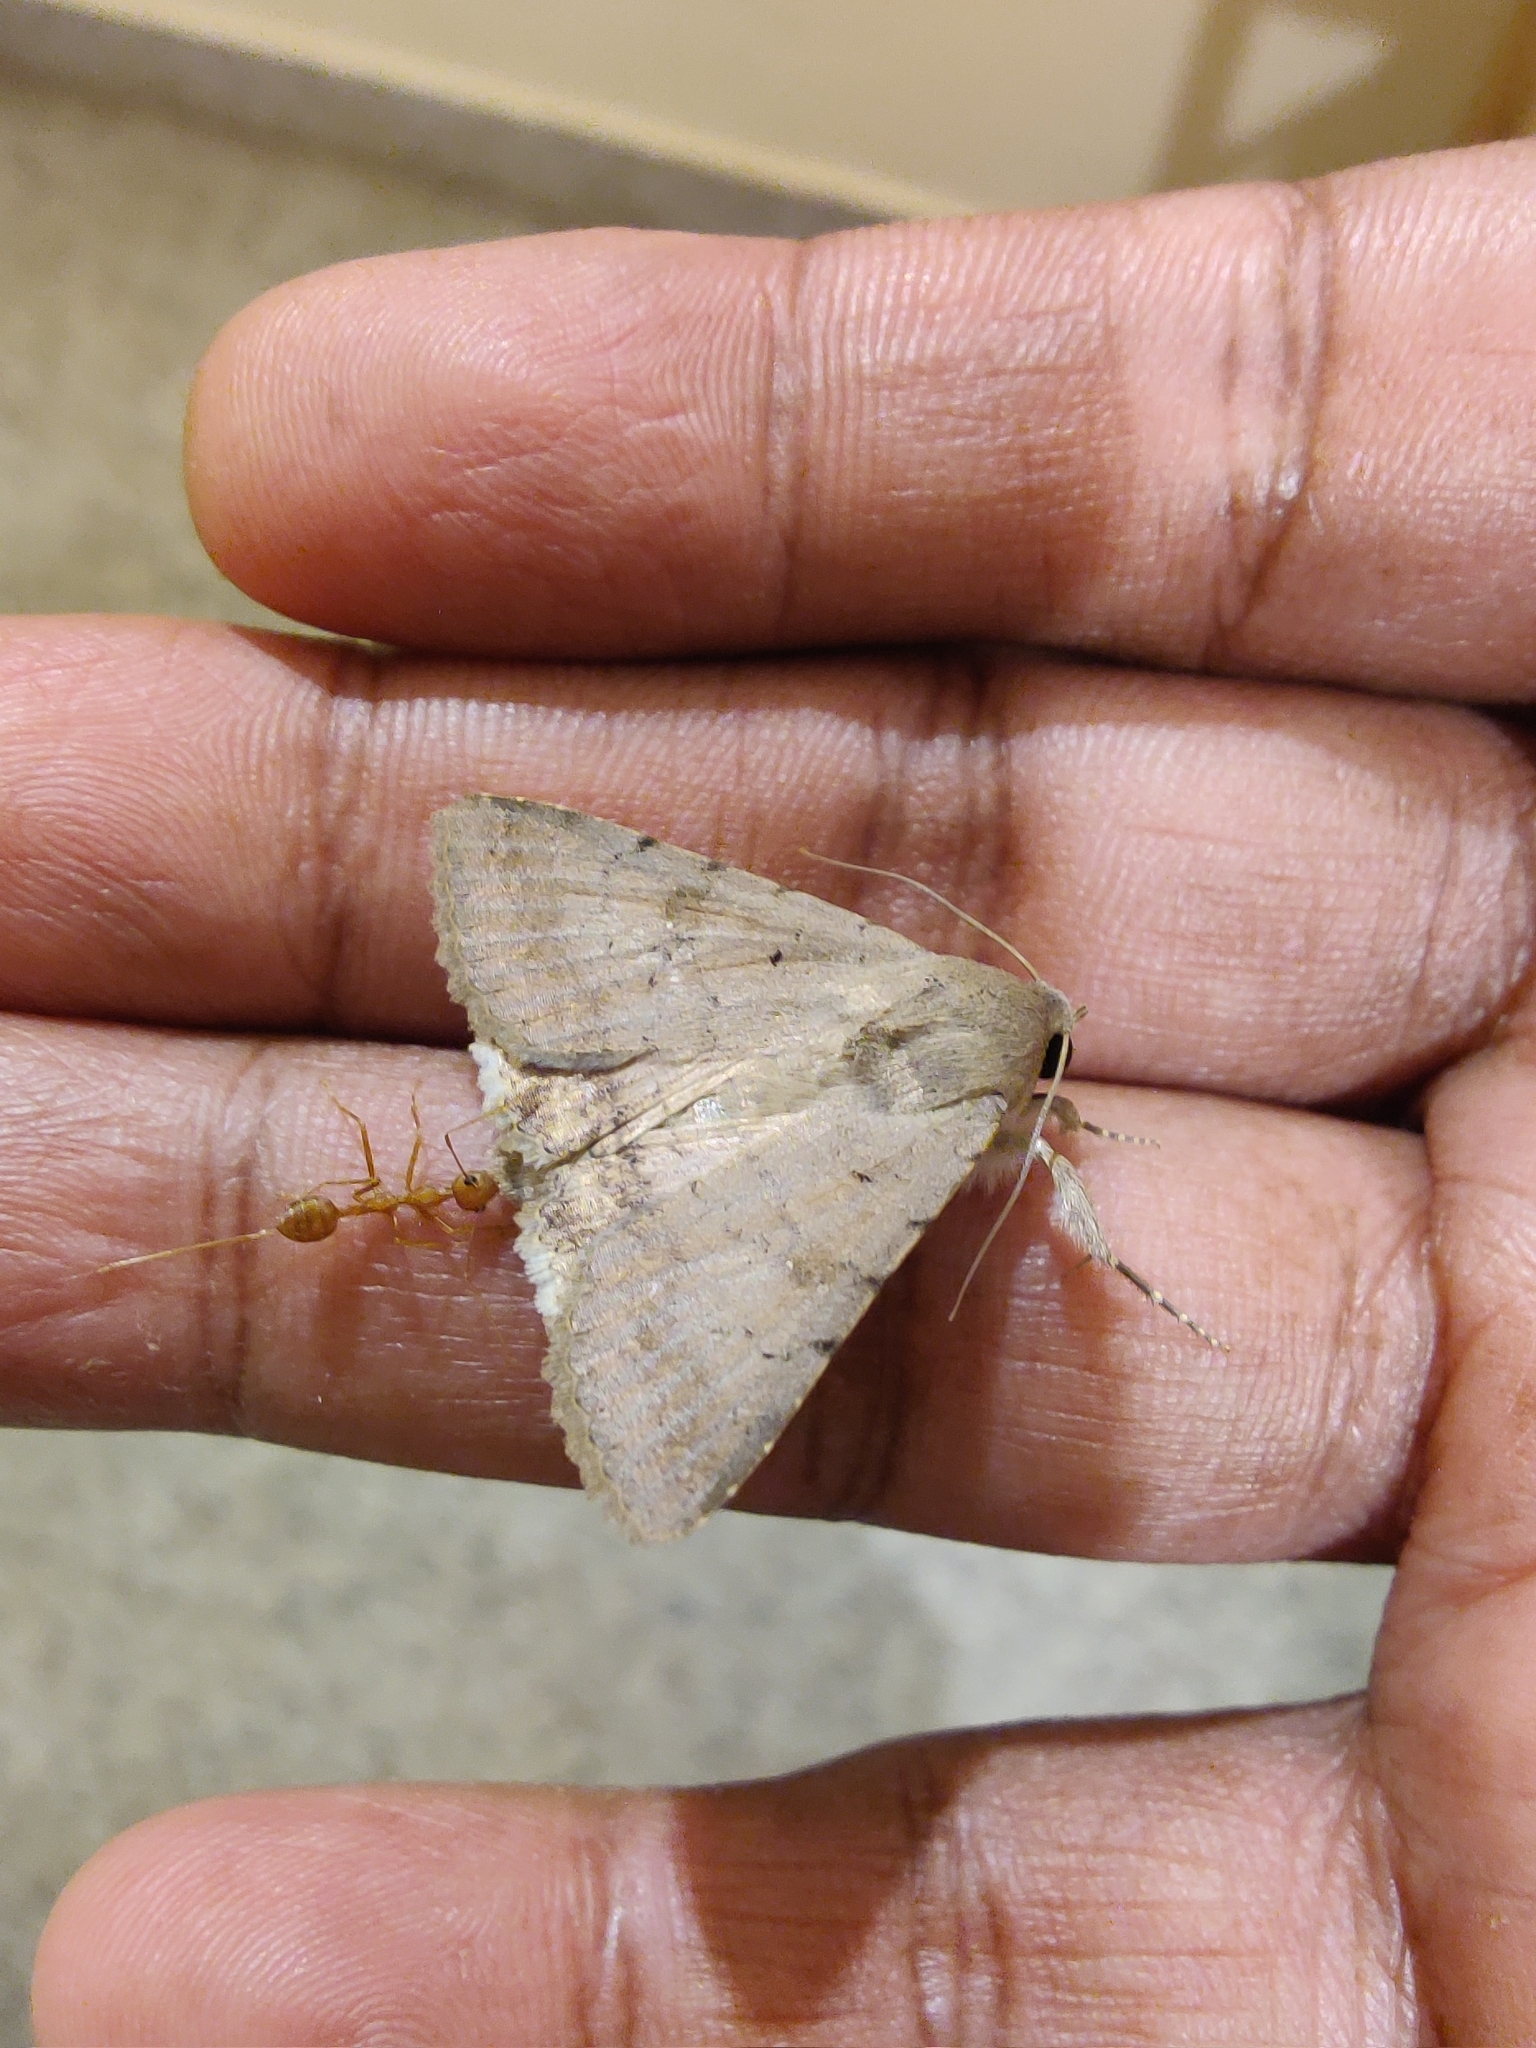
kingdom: Animalia
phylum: Arthropoda
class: Insecta
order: Hymenoptera
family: Formicidae
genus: Oecophylla
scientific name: Oecophylla smaragdina
